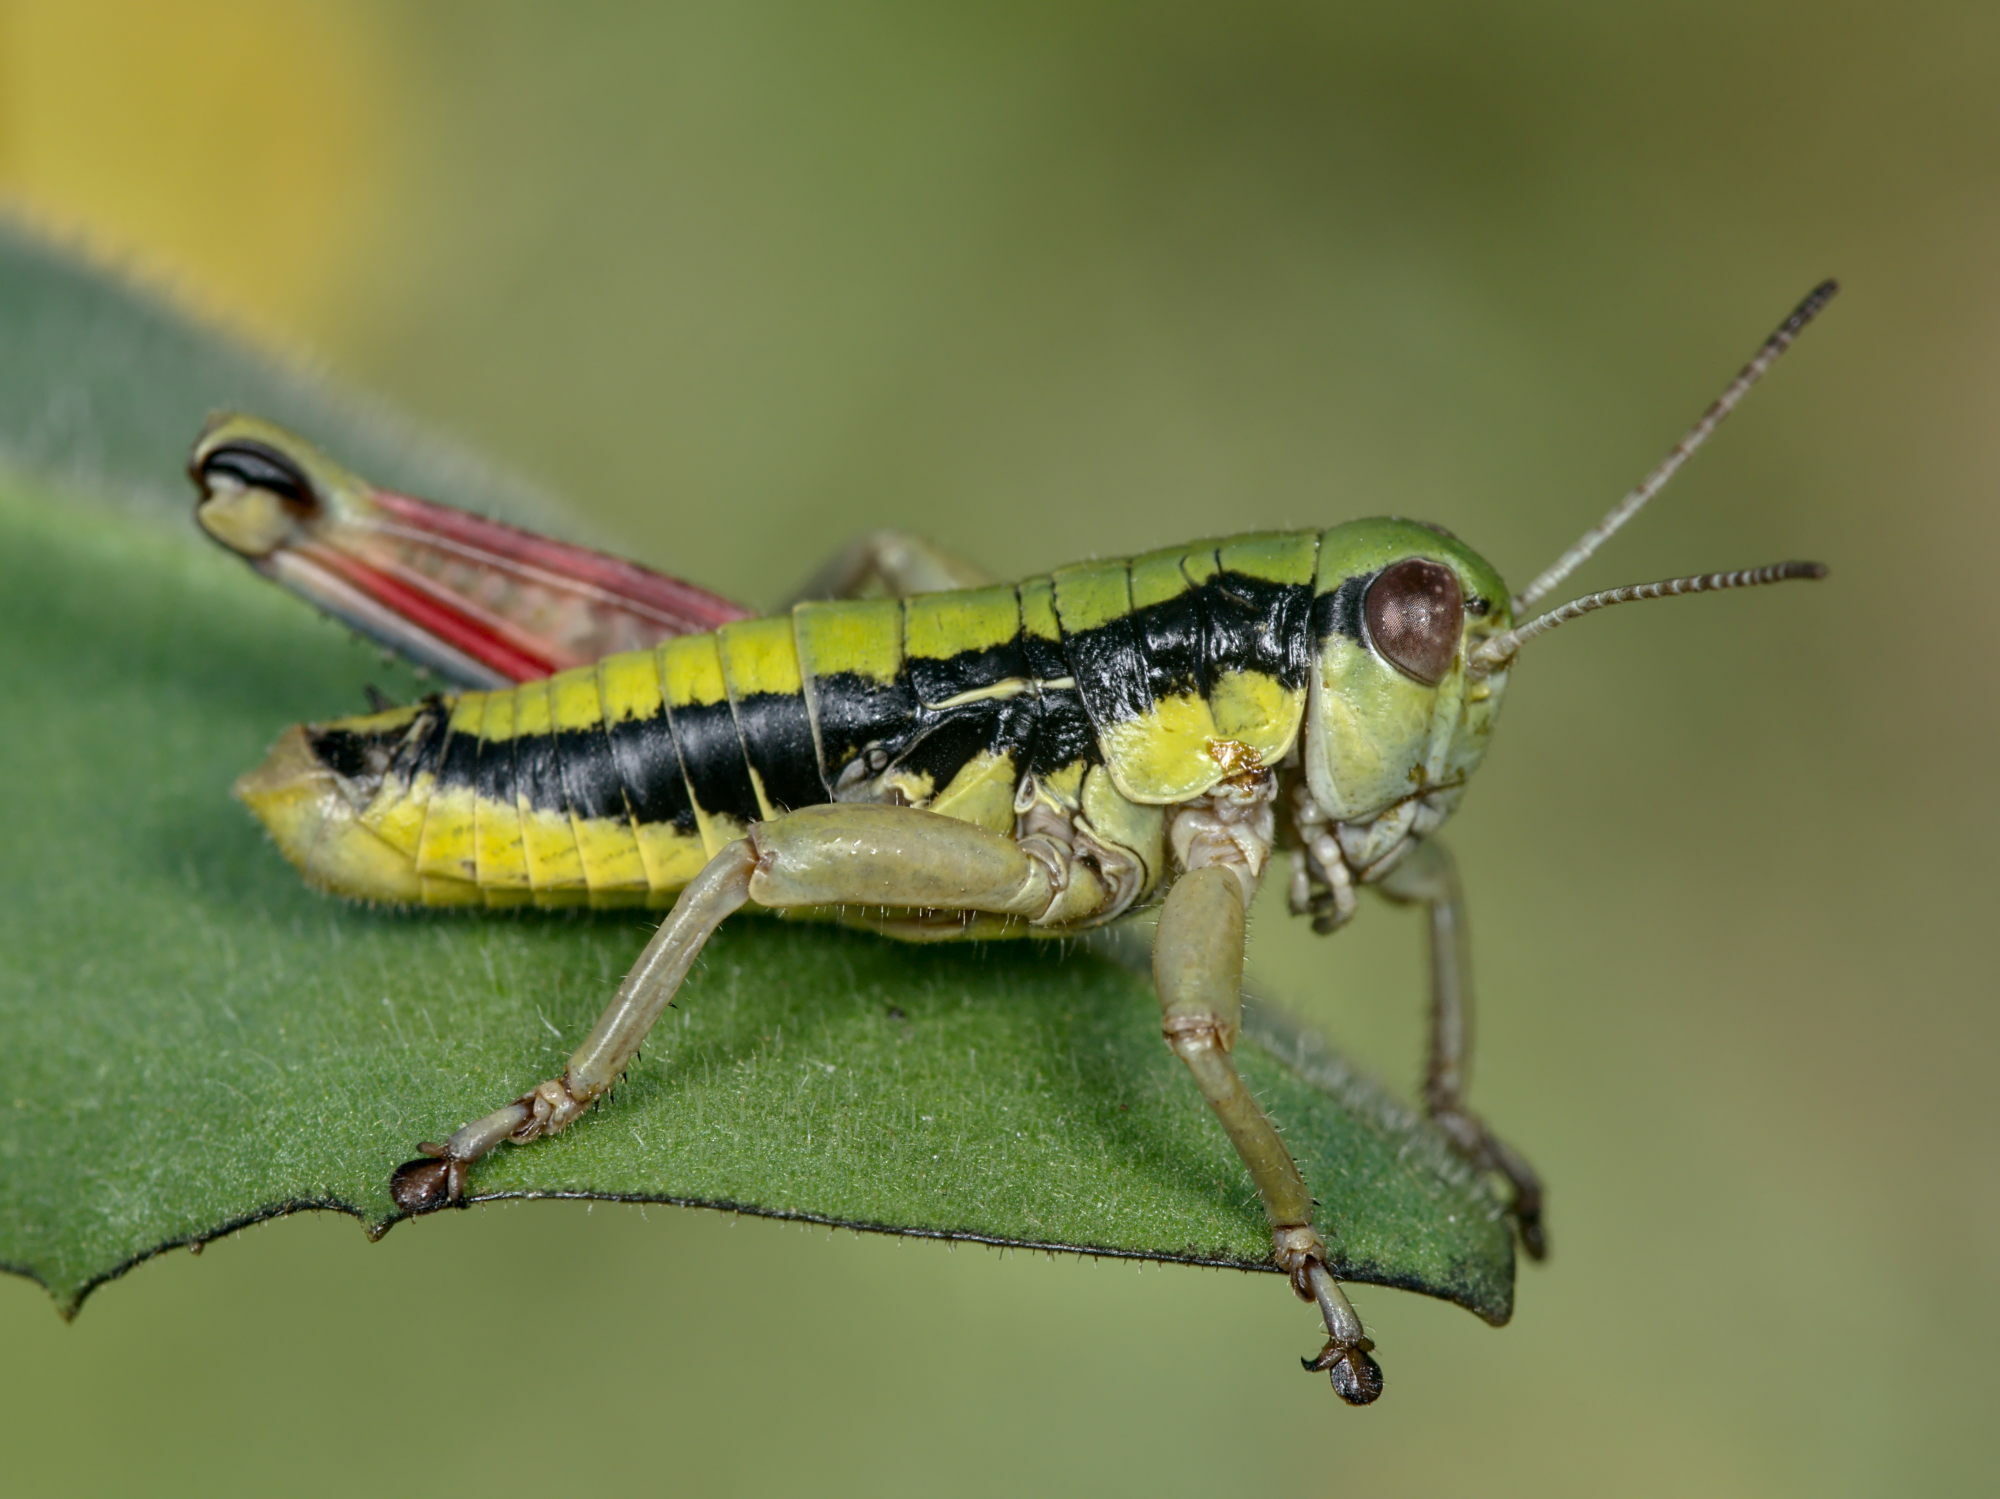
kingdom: Animalia
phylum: Arthropoda
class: Insecta
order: Orthoptera
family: Acrididae
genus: Epipodisma
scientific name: Epipodisma pedemontana
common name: Piedmont mountain grasshopper
